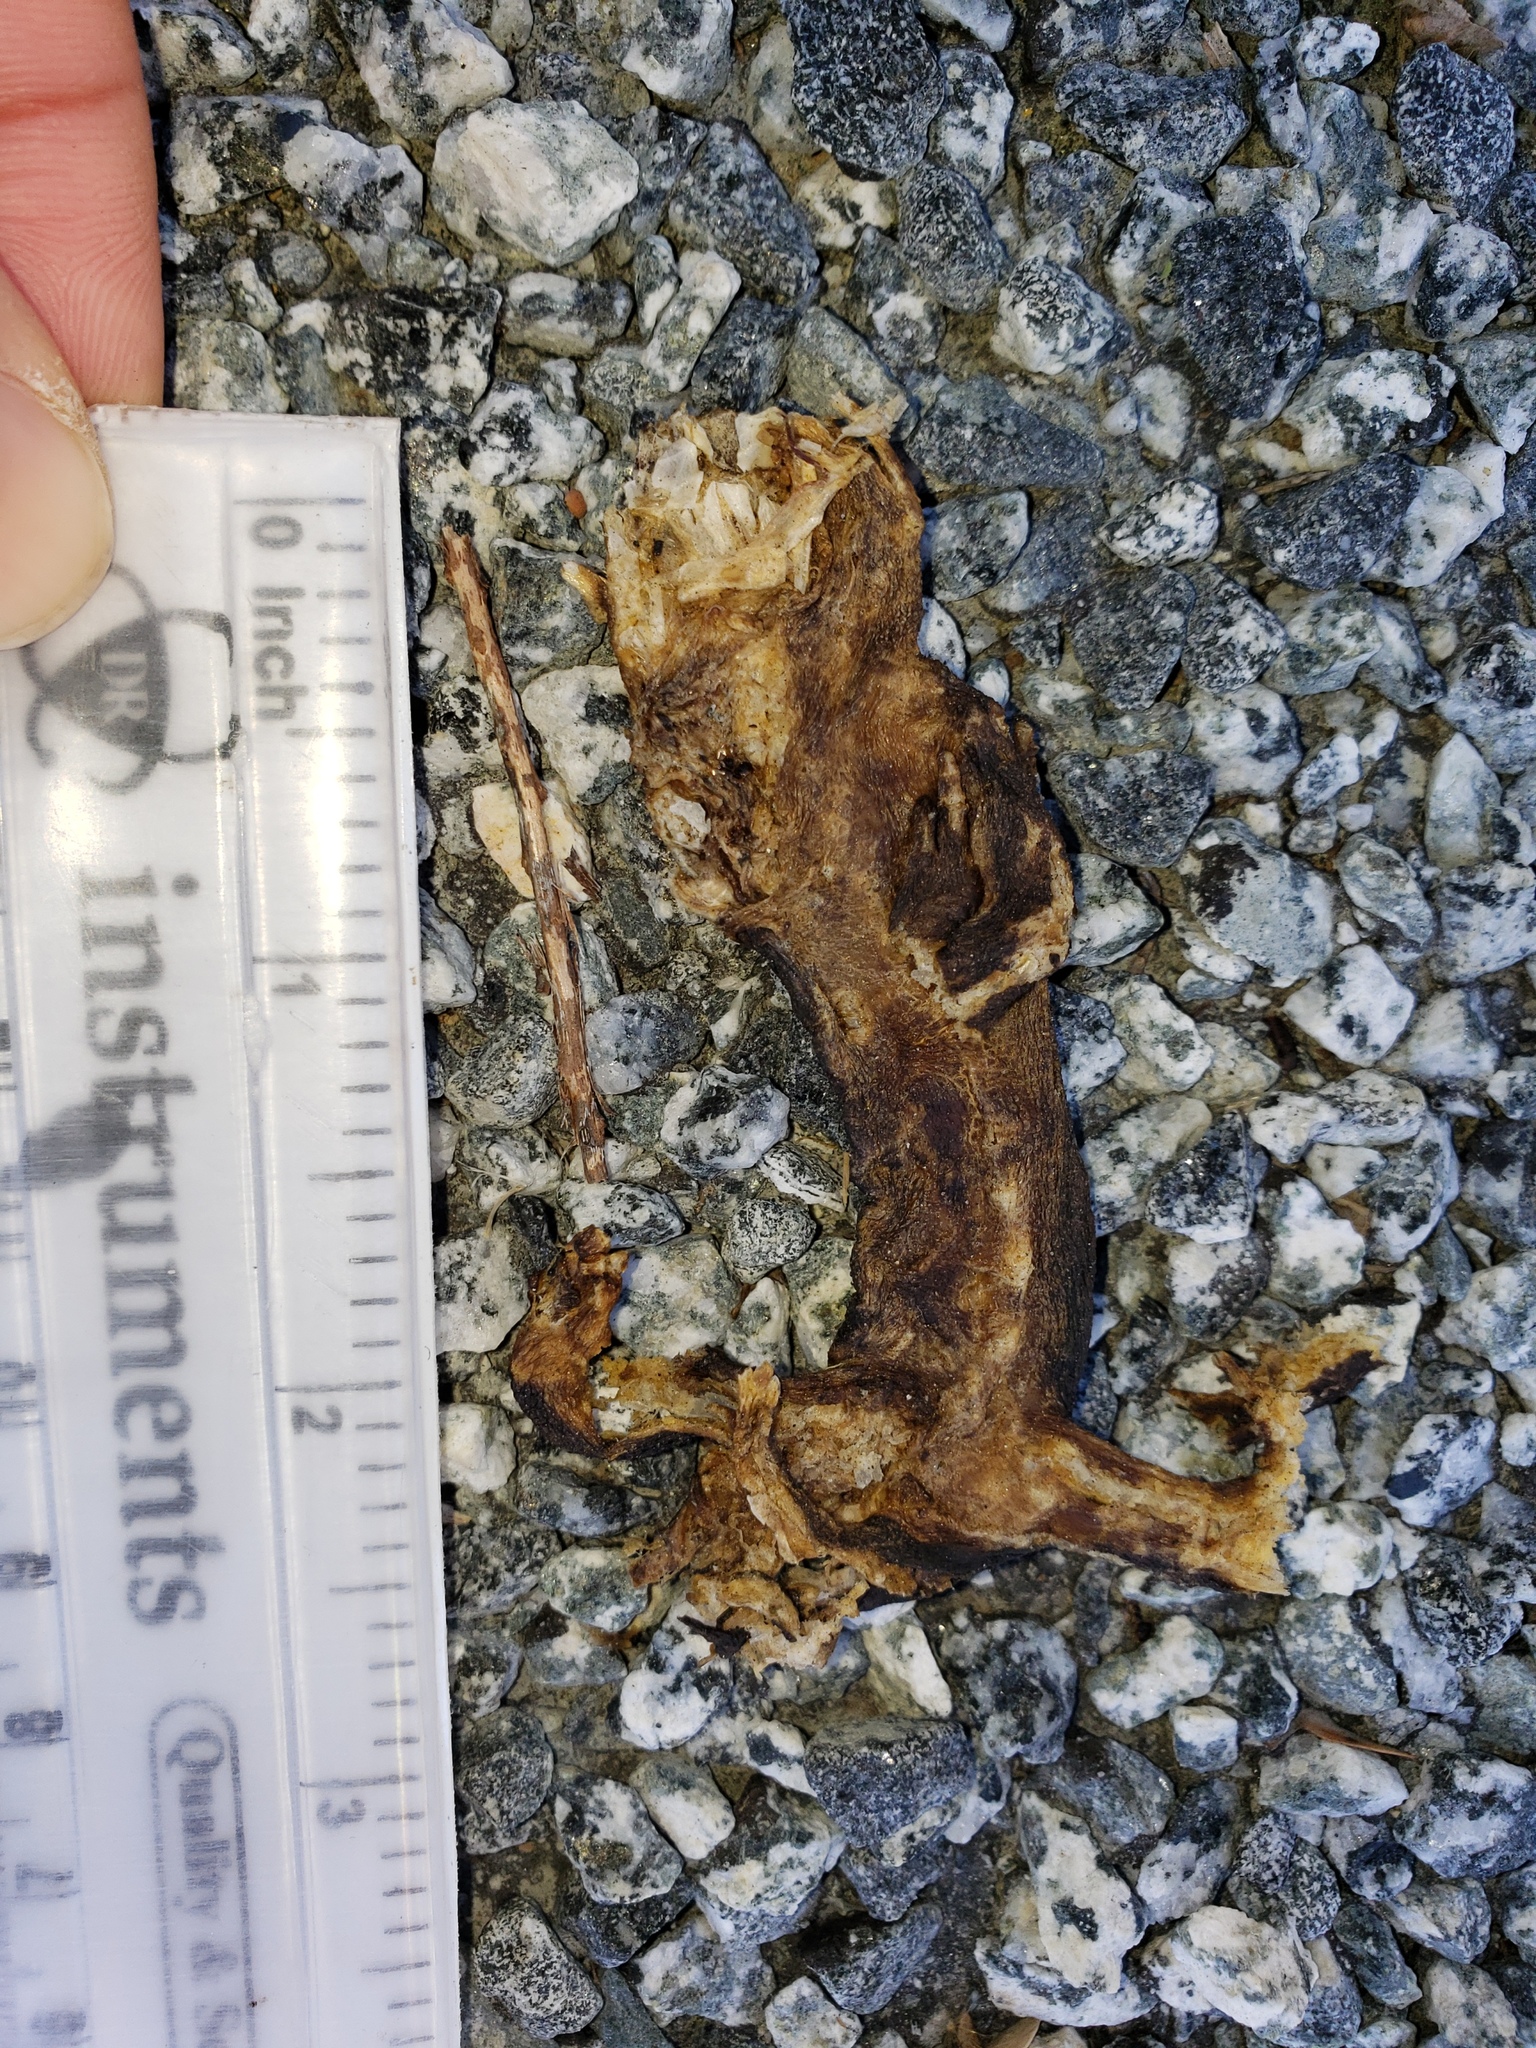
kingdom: Animalia
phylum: Chordata
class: Amphibia
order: Caudata
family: Salamandridae
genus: Taricha
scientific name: Taricha
